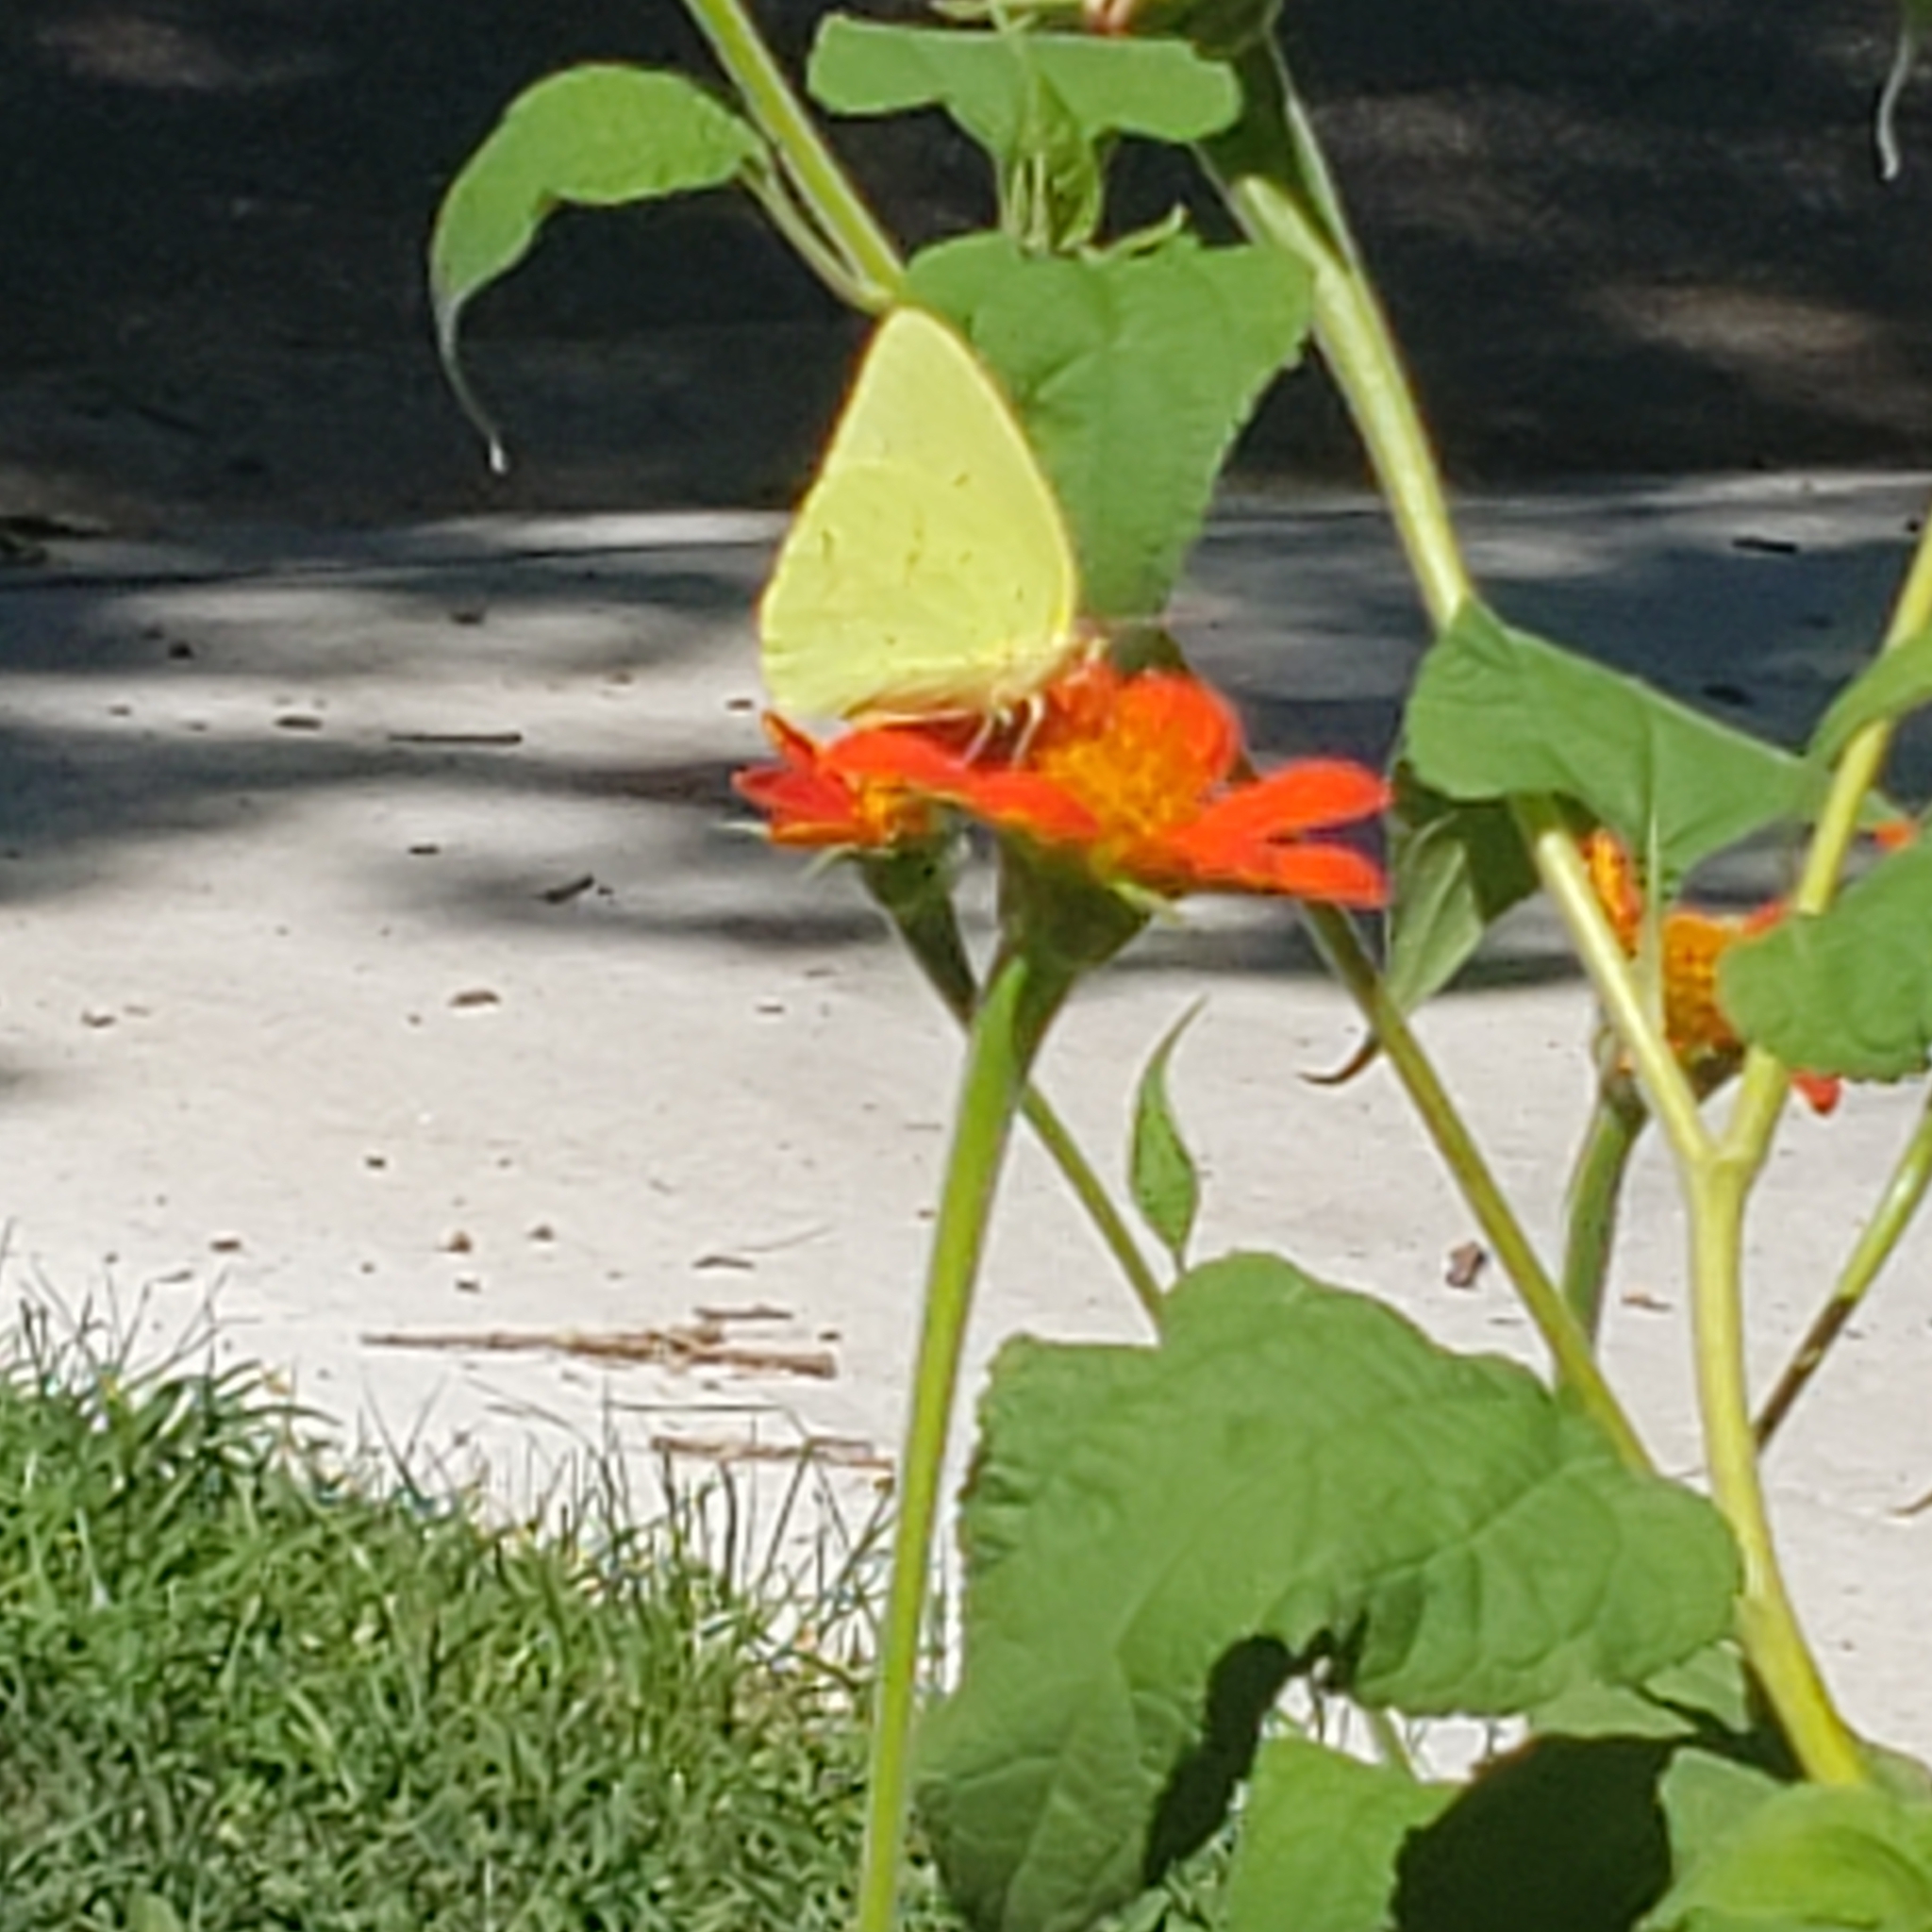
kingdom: Animalia
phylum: Arthropoda
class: Insecta
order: Lepidoptera
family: Pieridae
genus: Phoebis
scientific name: Phoebis sennae
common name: Cloudless sulphur
